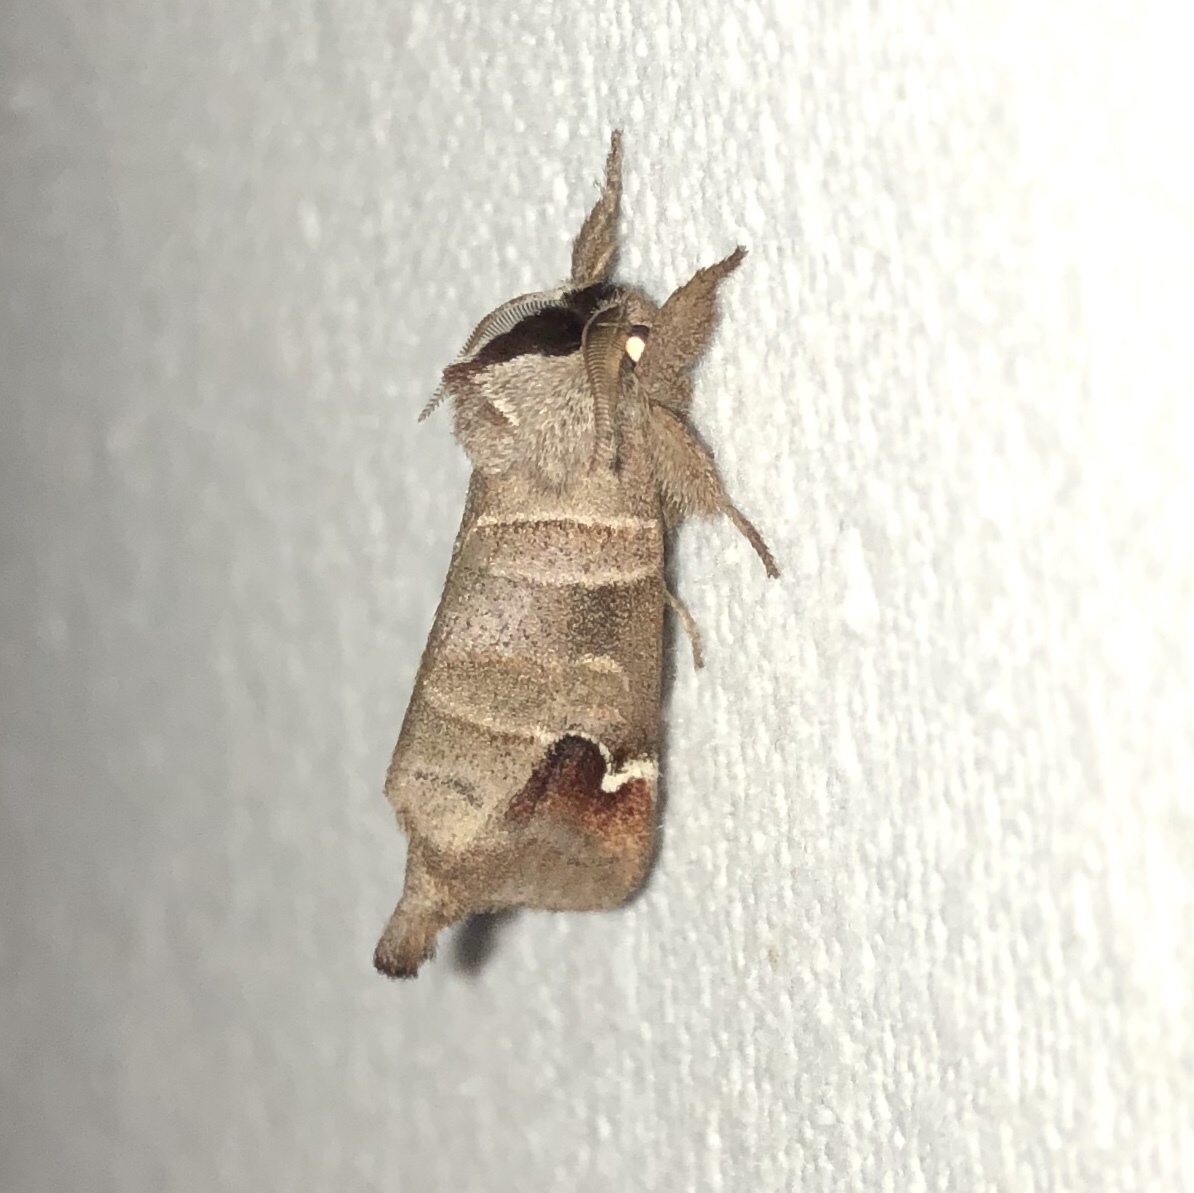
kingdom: Animalia
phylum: Arthropoda
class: Insecta
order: Lepidoptera
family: Notodontidae
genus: Clostera
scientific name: Clostera albosigma
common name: Sigmoid prominent
